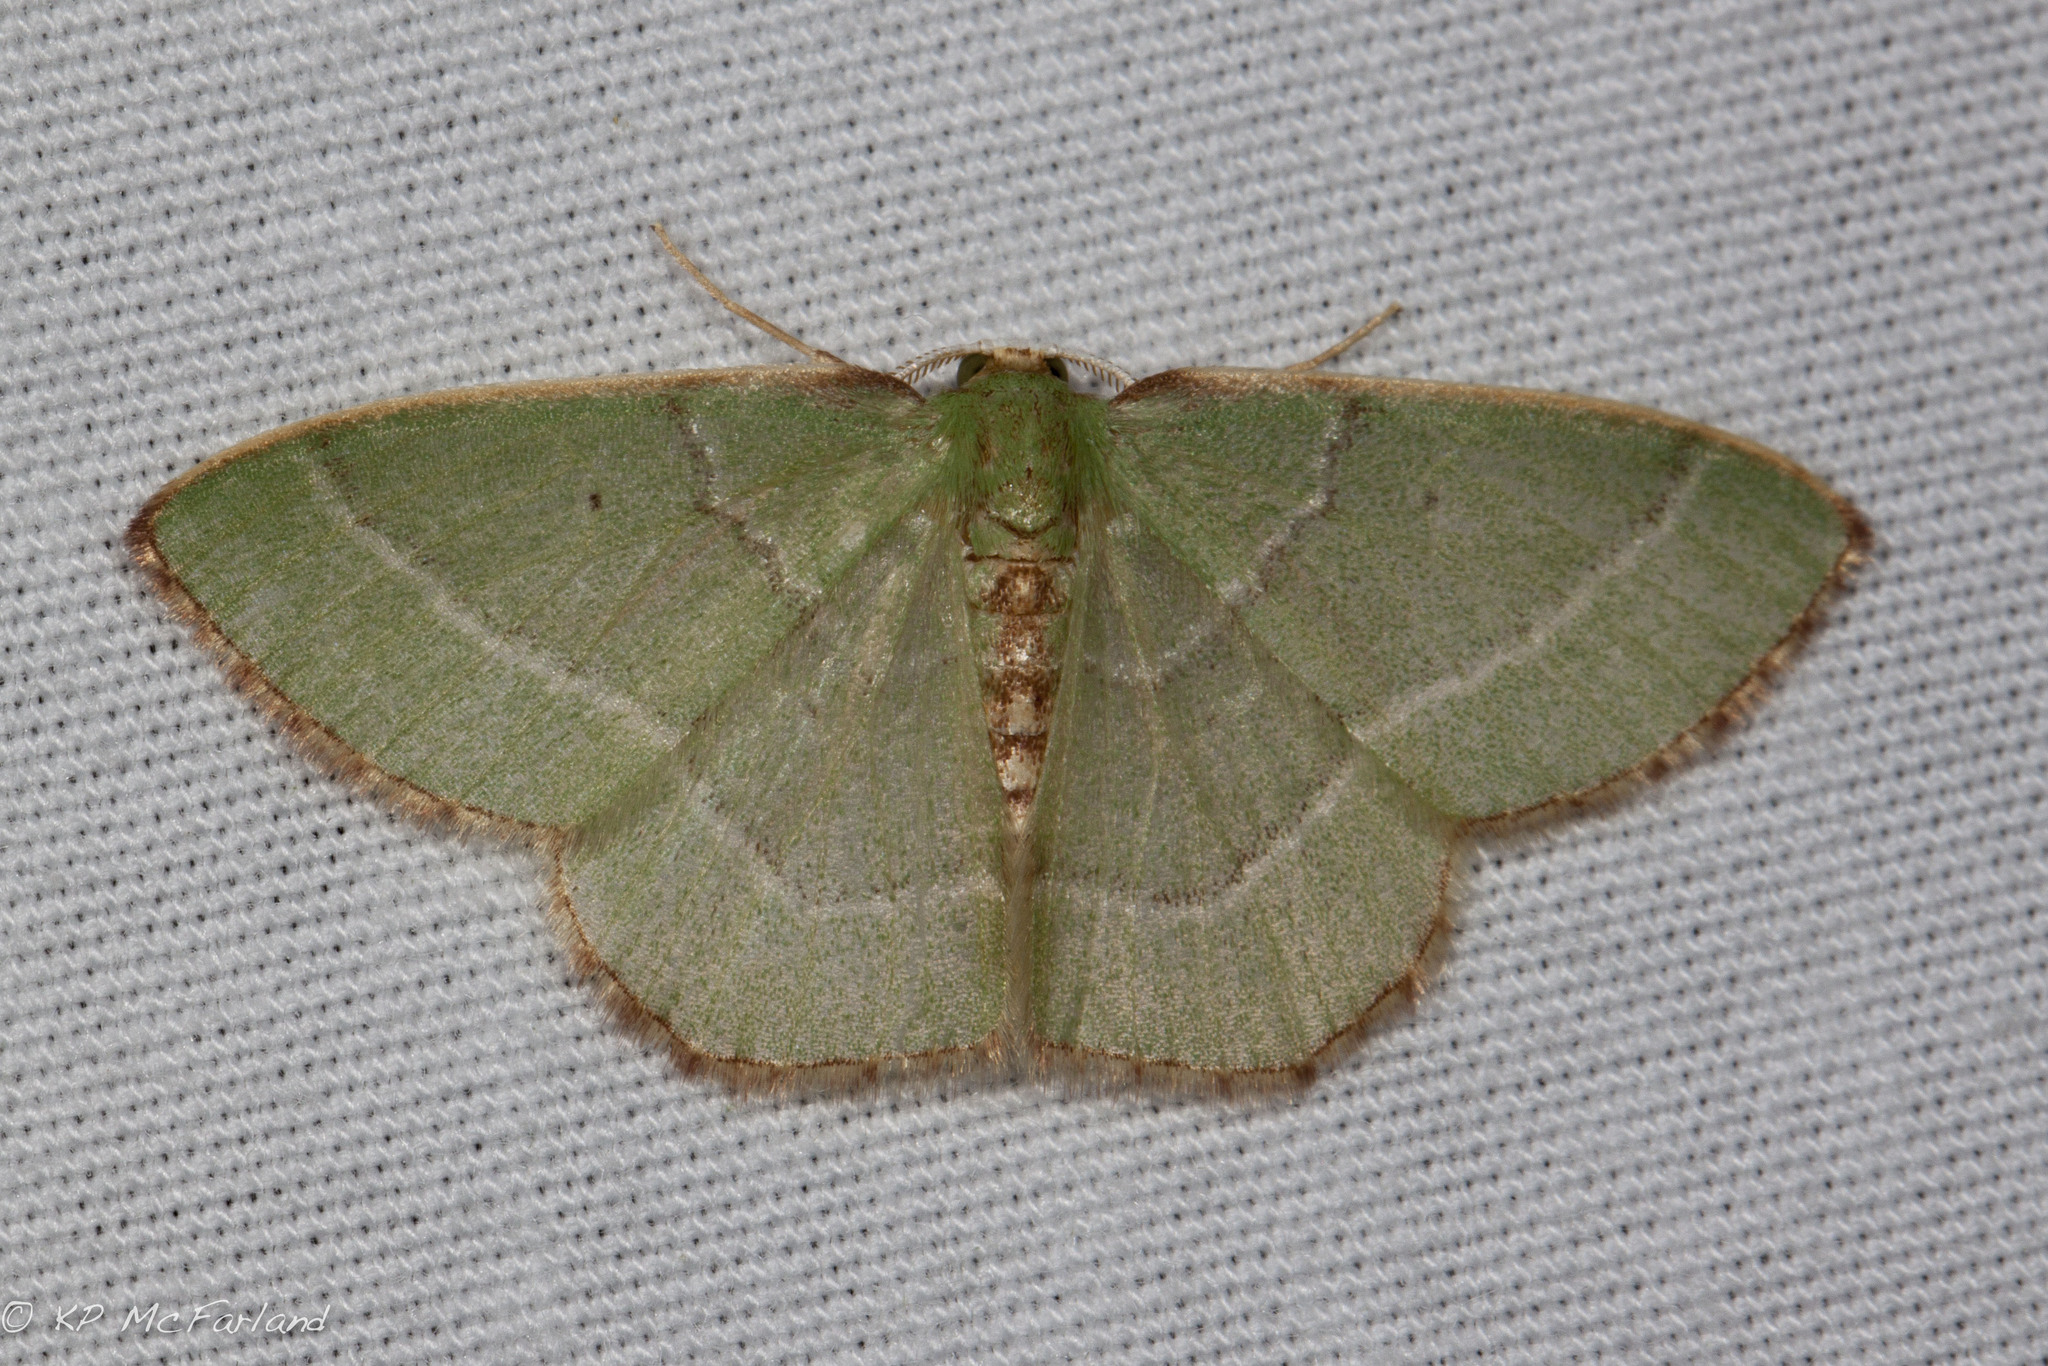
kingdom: Animalia
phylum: Arthropoda
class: Insecta
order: Lepidoptera
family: Geometridae
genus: Nemoria
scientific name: Nemoria bistriaria
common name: Red-fringed emerald
